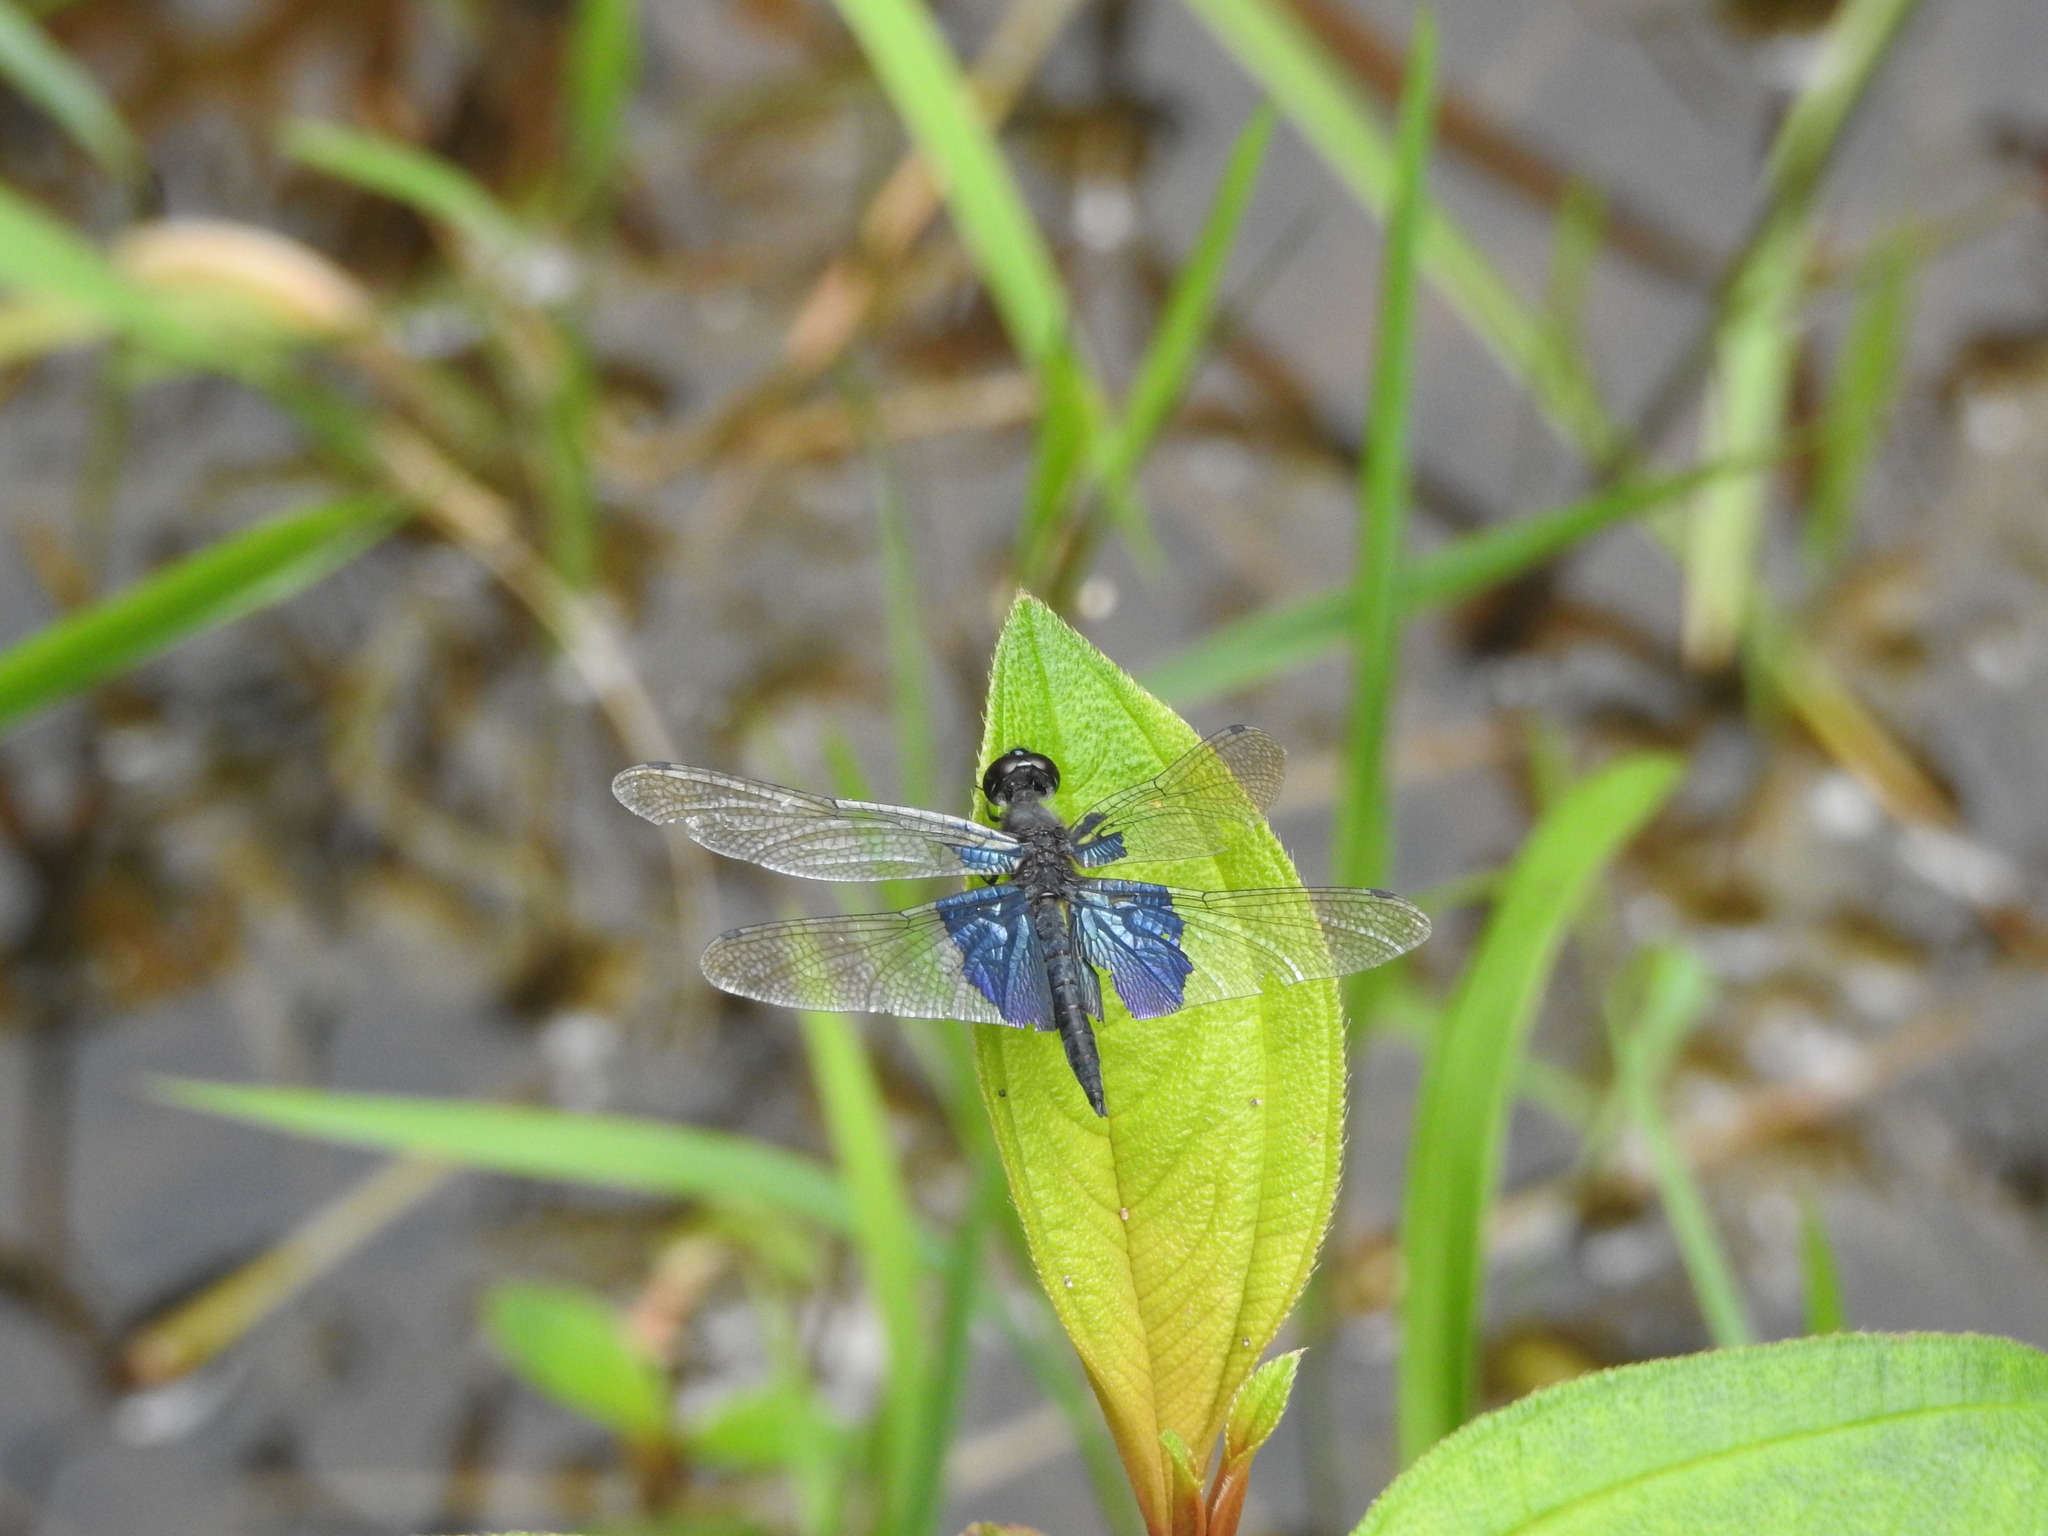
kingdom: Animalia
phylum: Arthropoda
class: Insecta
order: Odonata
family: Libellulidae
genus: Rhyothemis
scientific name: Rhyothemis triangularis
